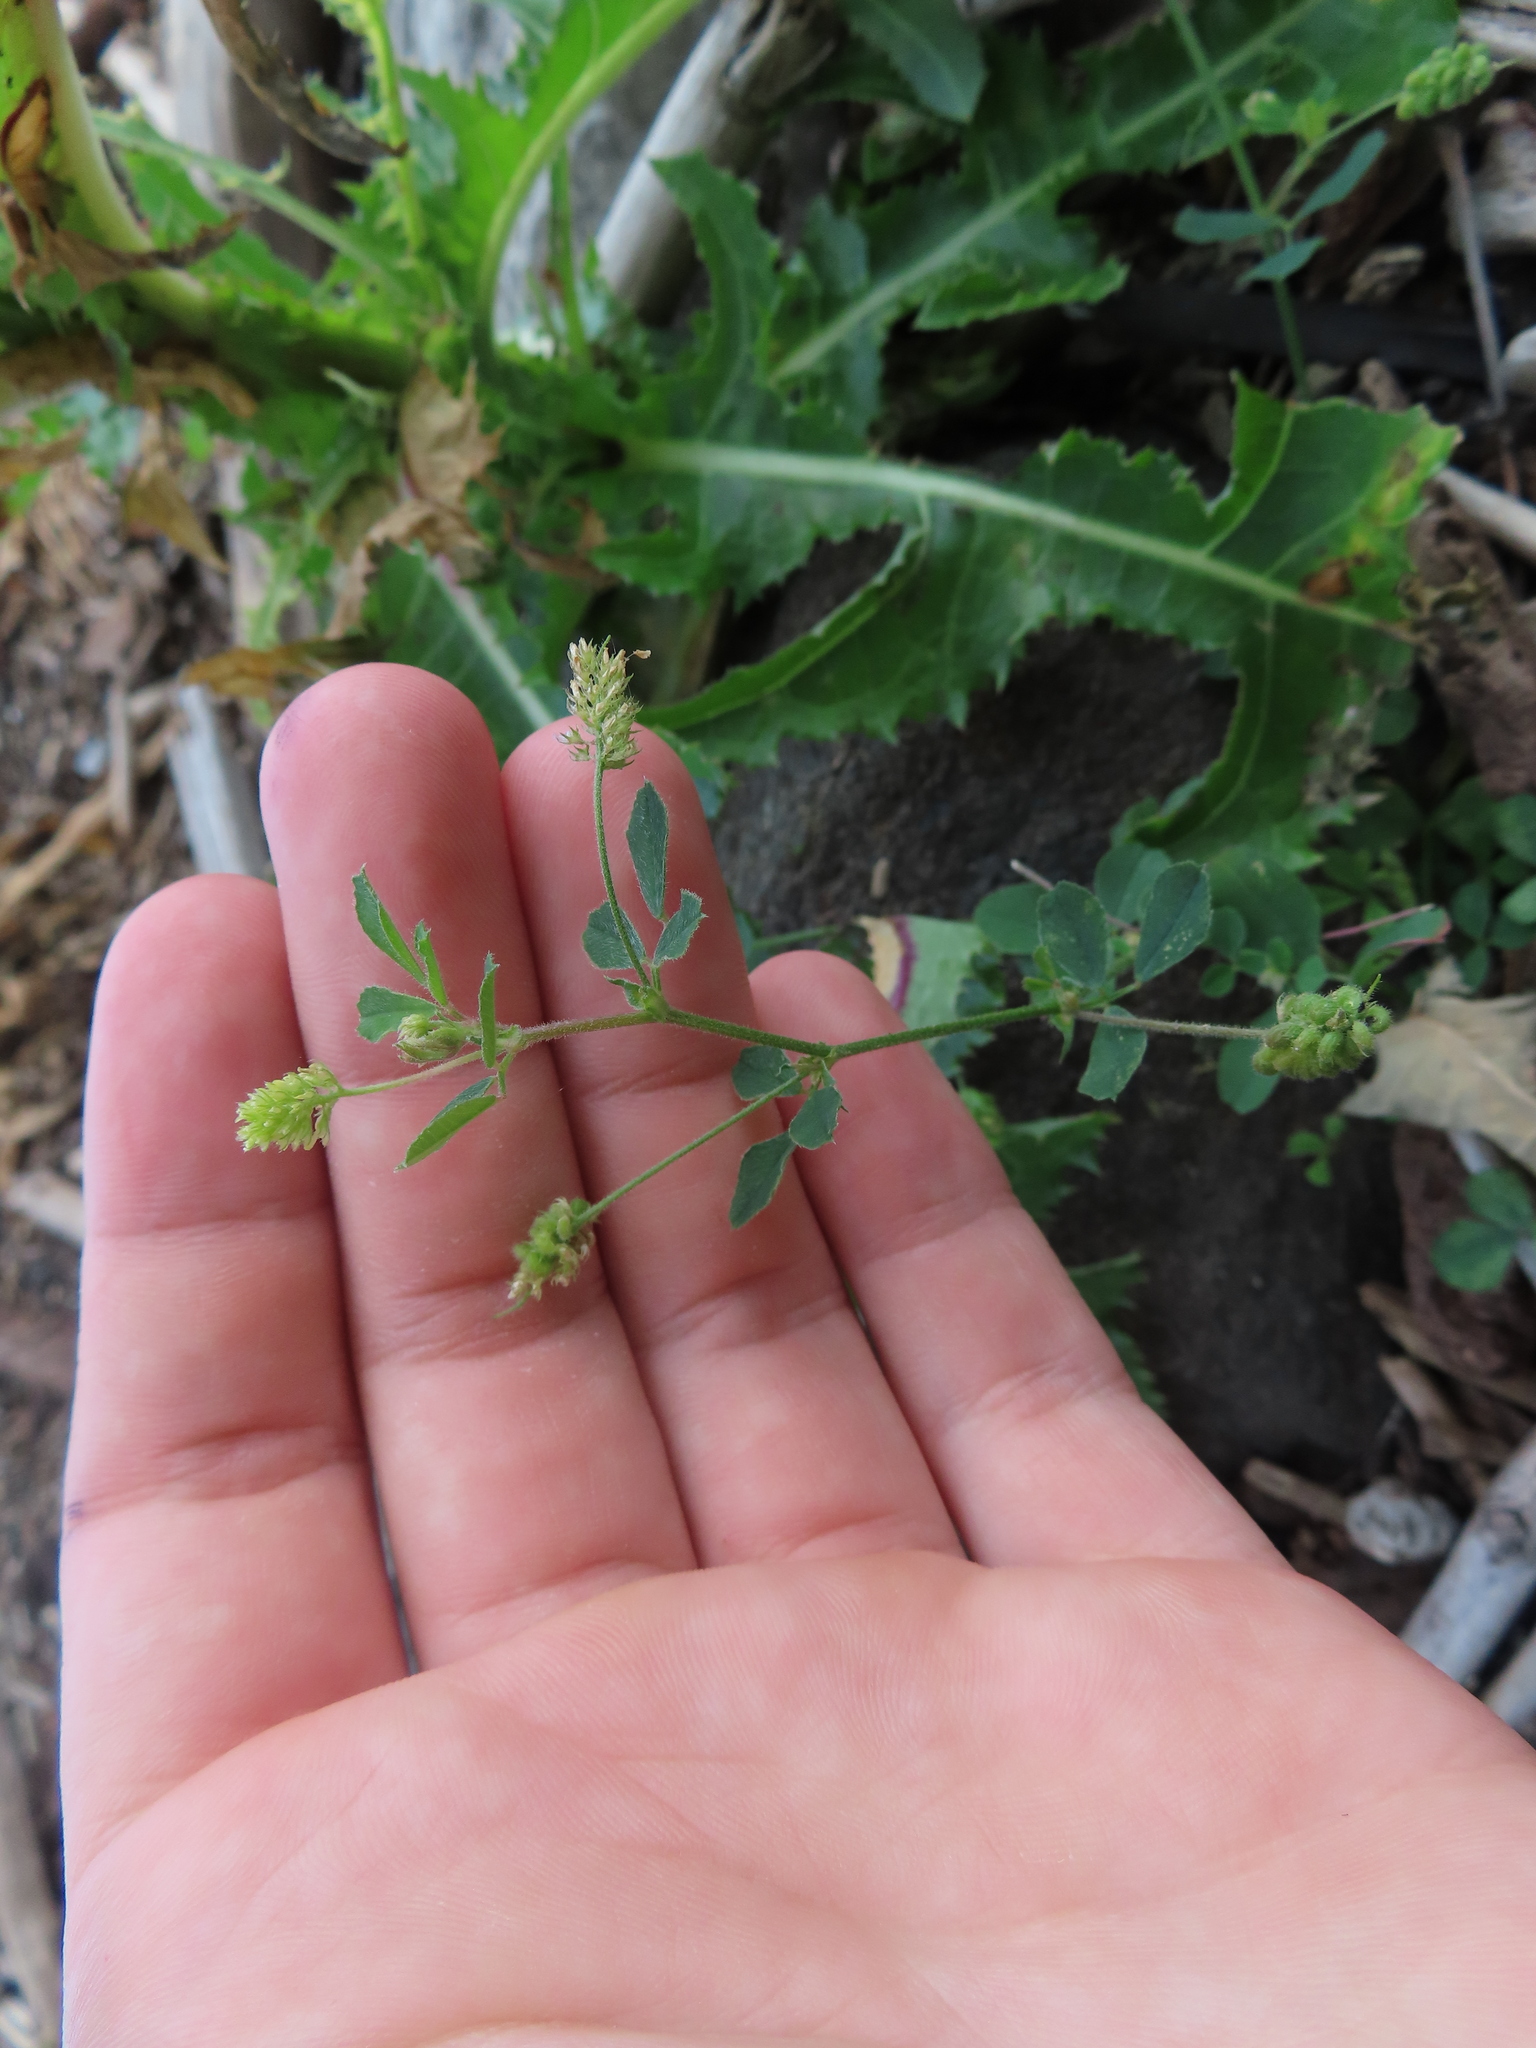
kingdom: Plantae
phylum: Tracheophyta
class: Magnoliopsida
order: Fabales
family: Fabaceae
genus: Medicago
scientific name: Medicago lupulina
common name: Black medick
